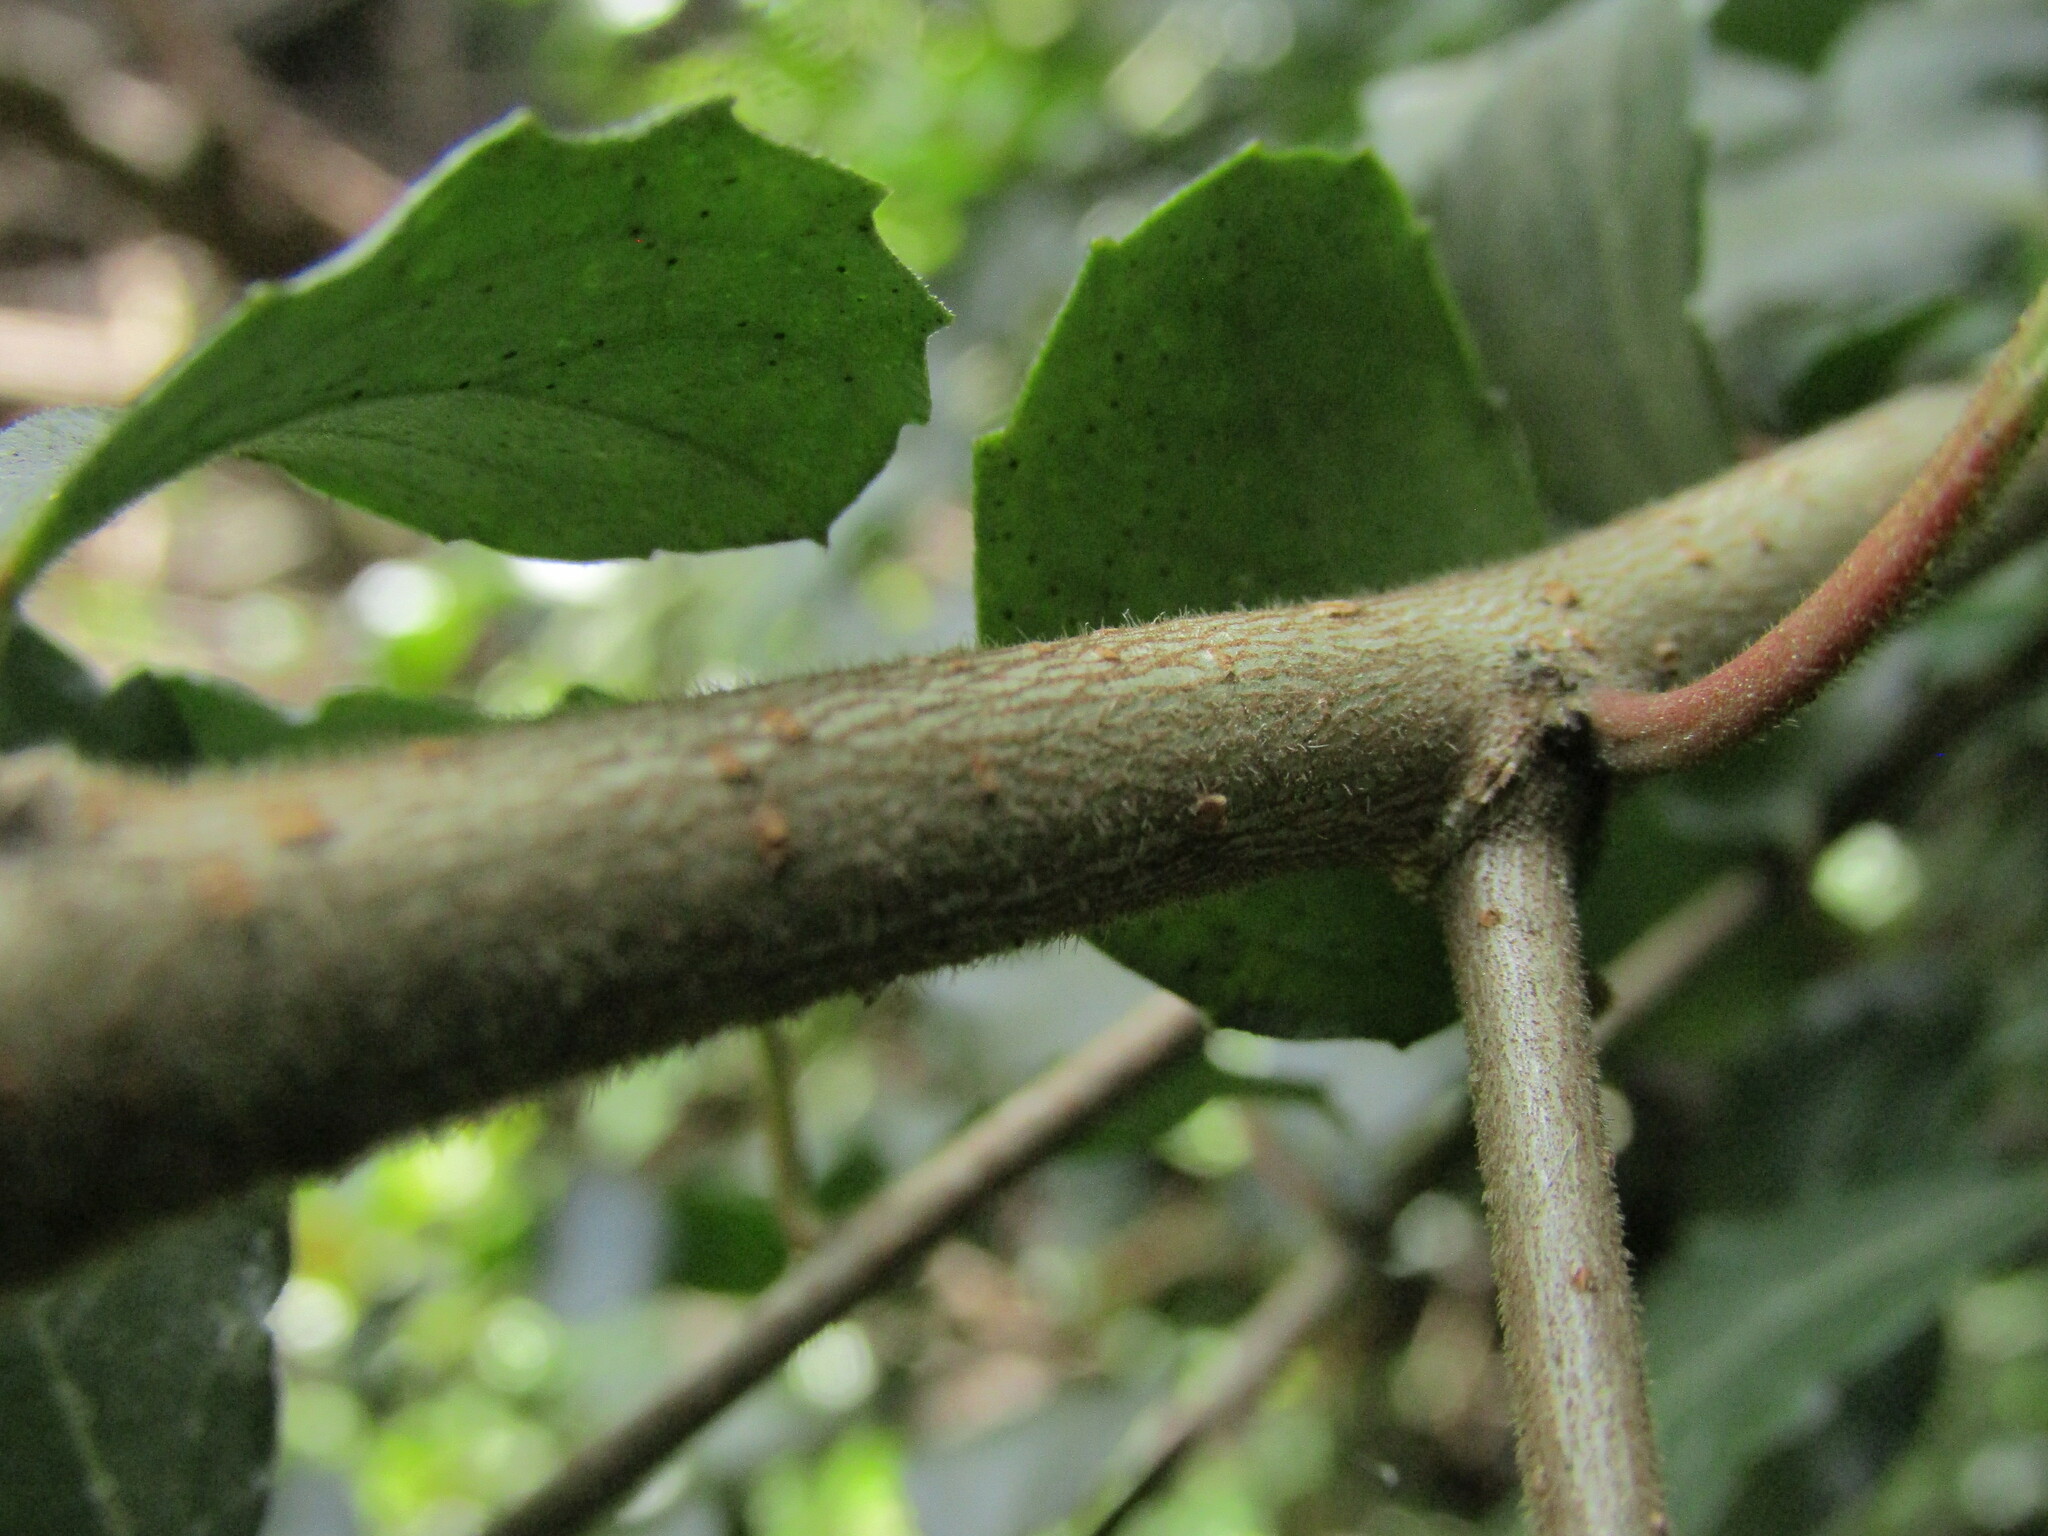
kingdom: Plantae
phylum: Tracheophyta
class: Magnoliopsida
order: Malpighiales
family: Salicaceae
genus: Azara
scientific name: Azara serrata
